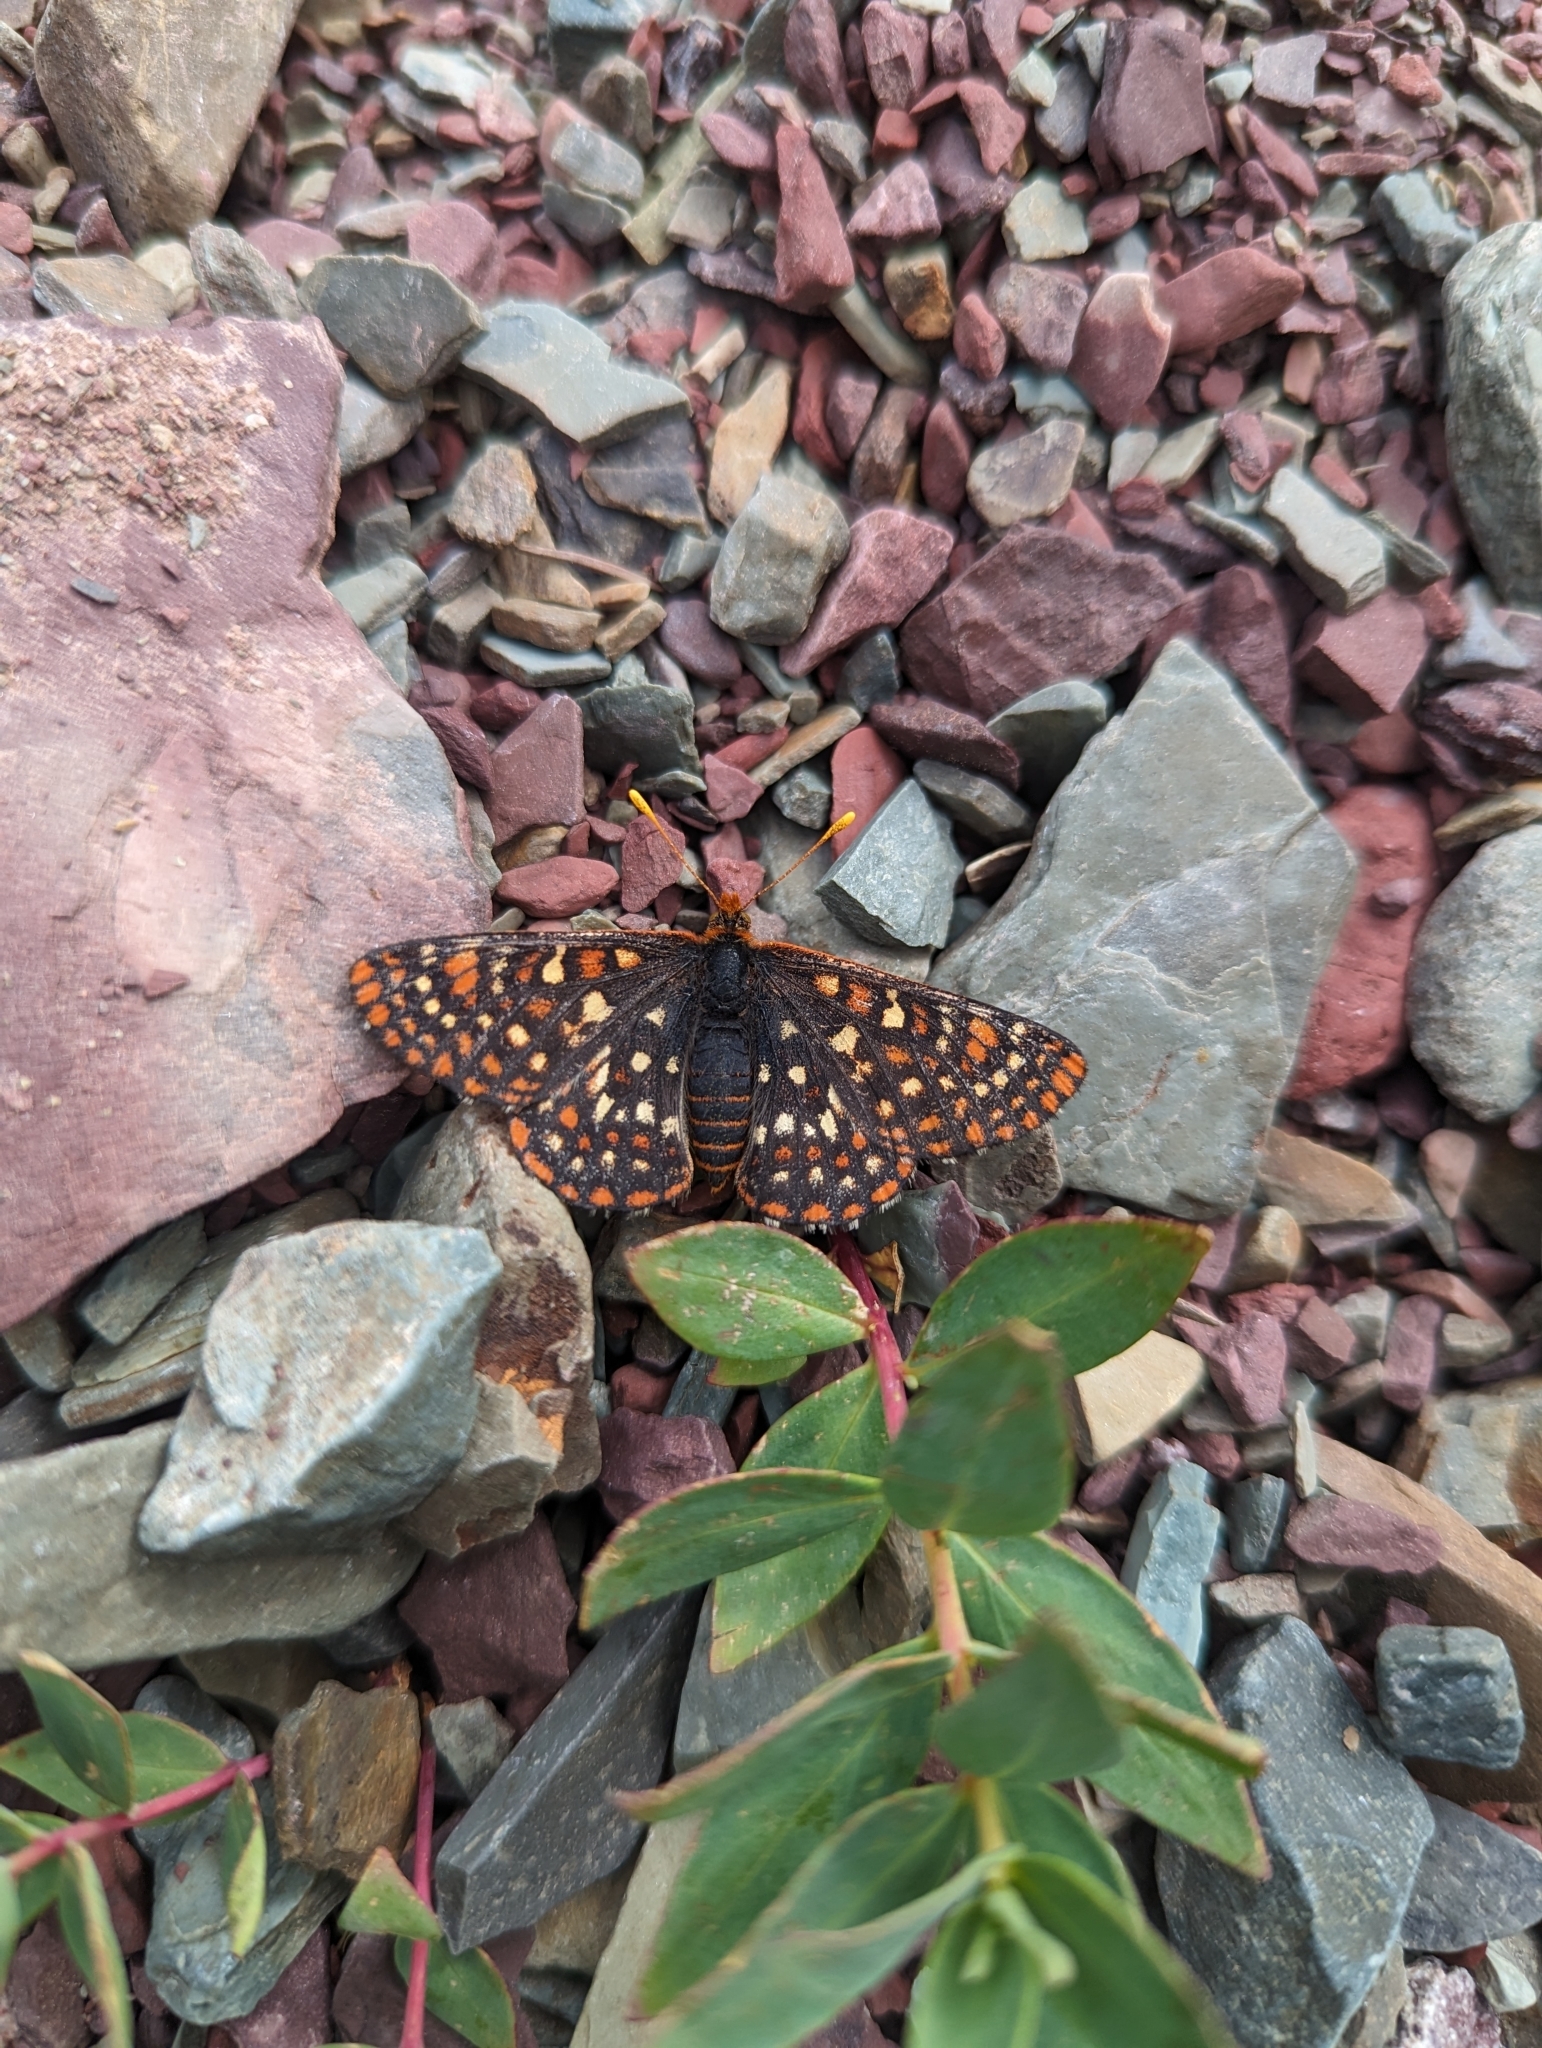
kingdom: Animalia
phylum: Arthropoda
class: Insecta
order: Lepidoptera
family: Nymphalidae
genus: Occidryas
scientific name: Occidryas anicia
